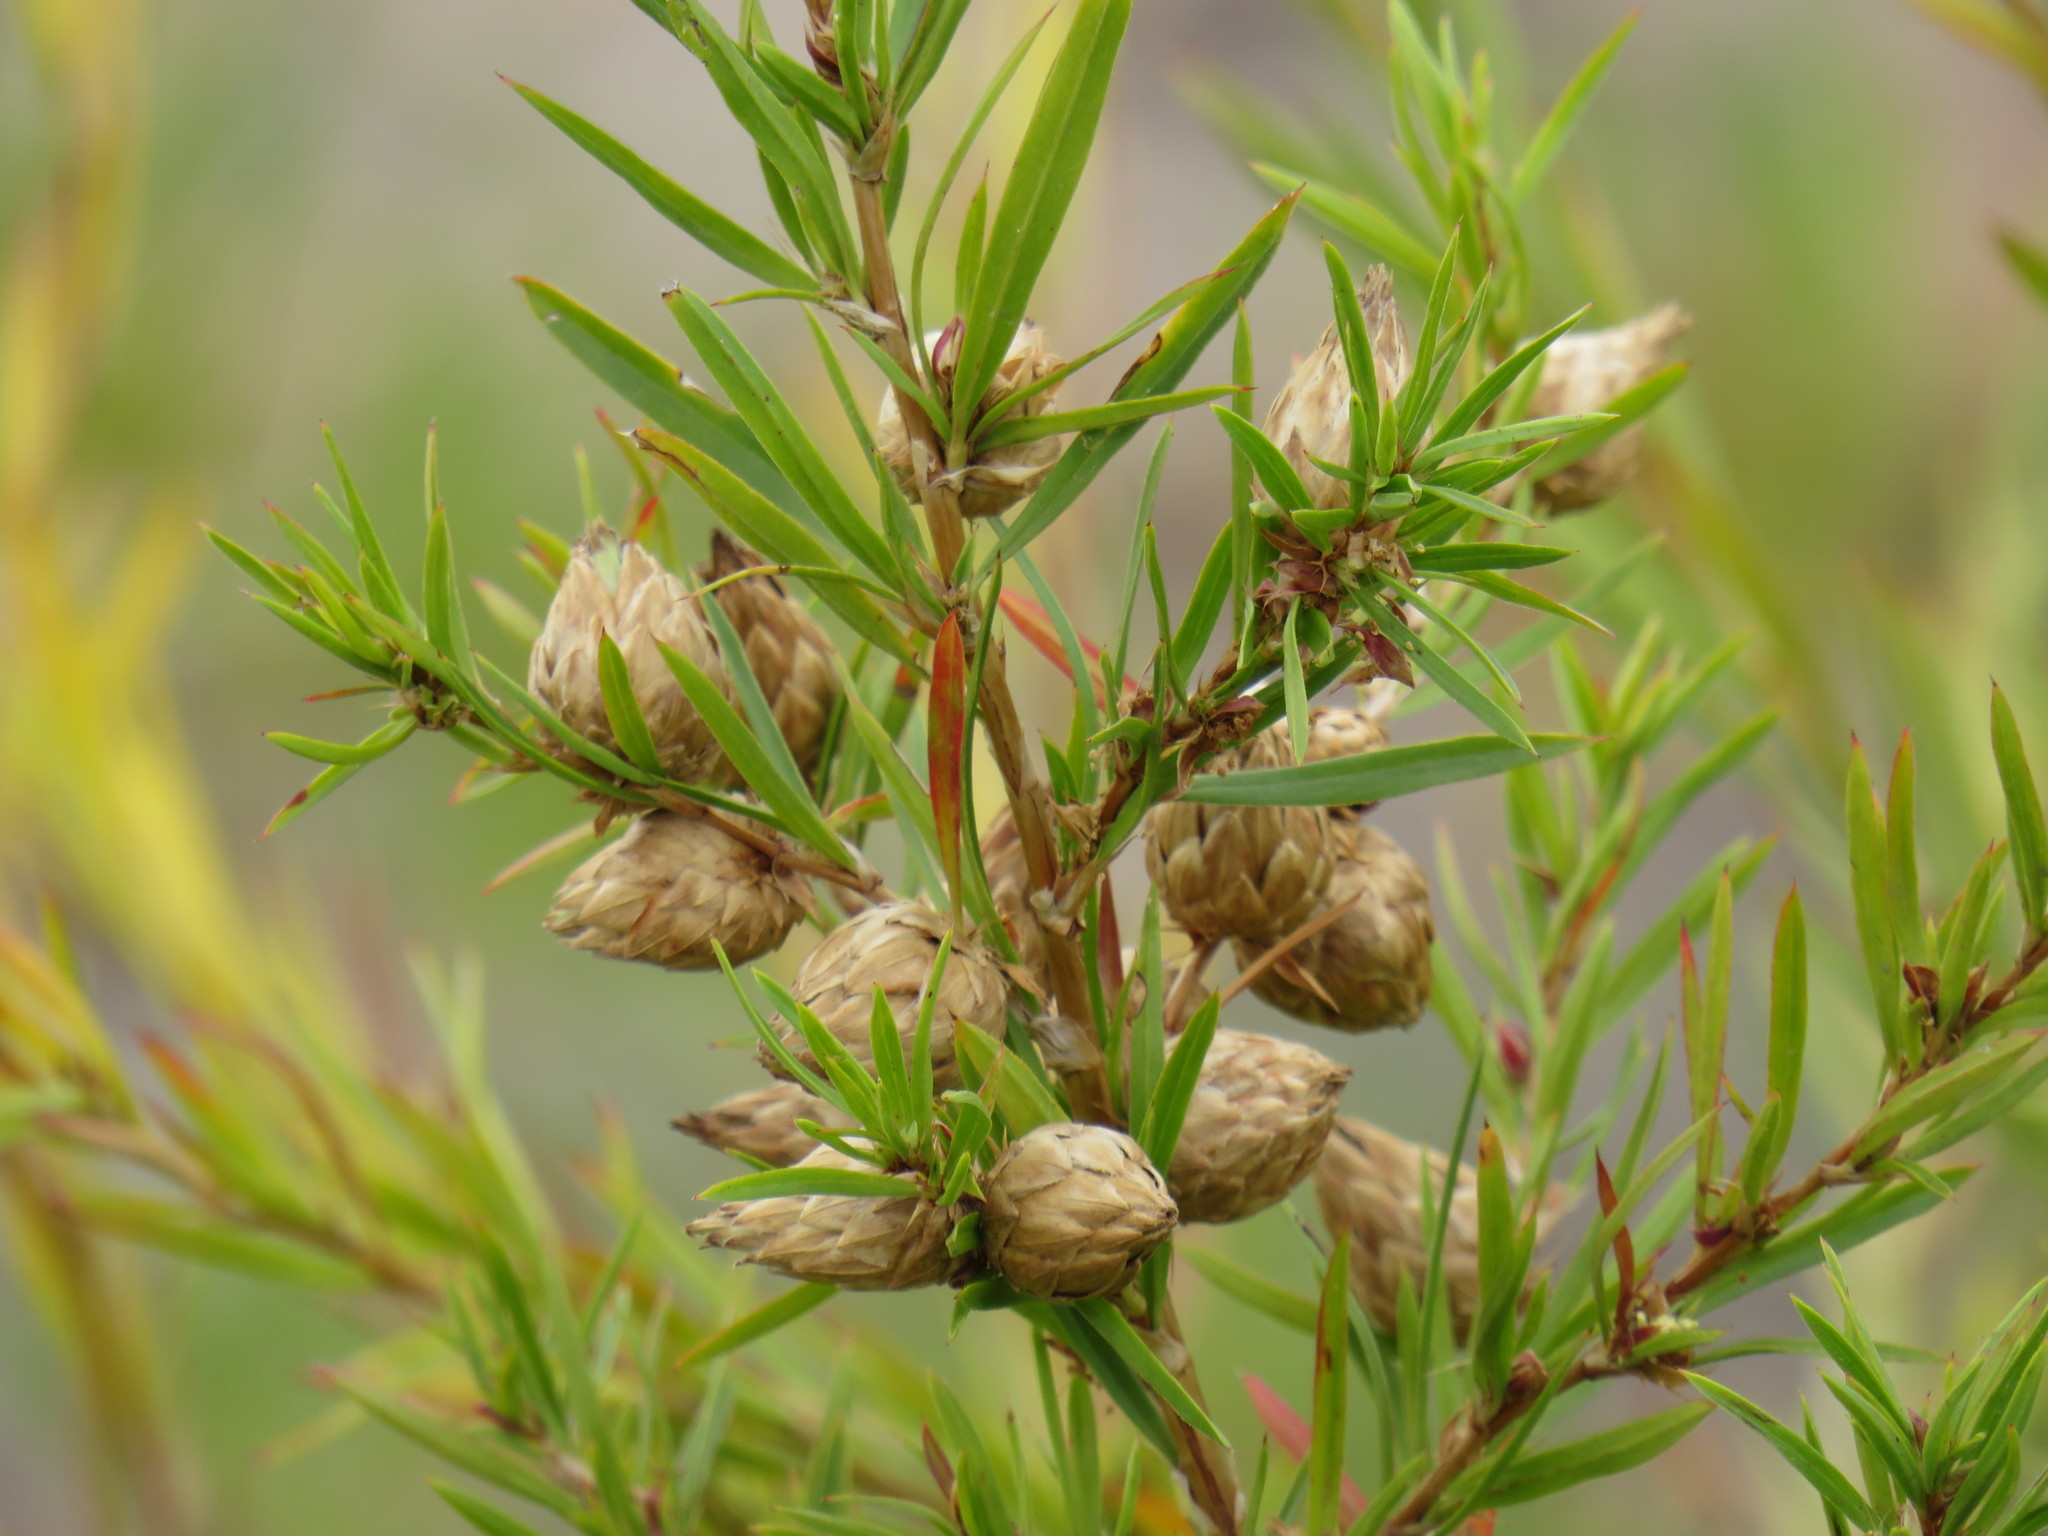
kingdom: Plantae
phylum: Tracheophyta
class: Magnoliopsida
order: Rosales
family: Rosaceae
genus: Cliffortia
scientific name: Cliffortia strobilifera
